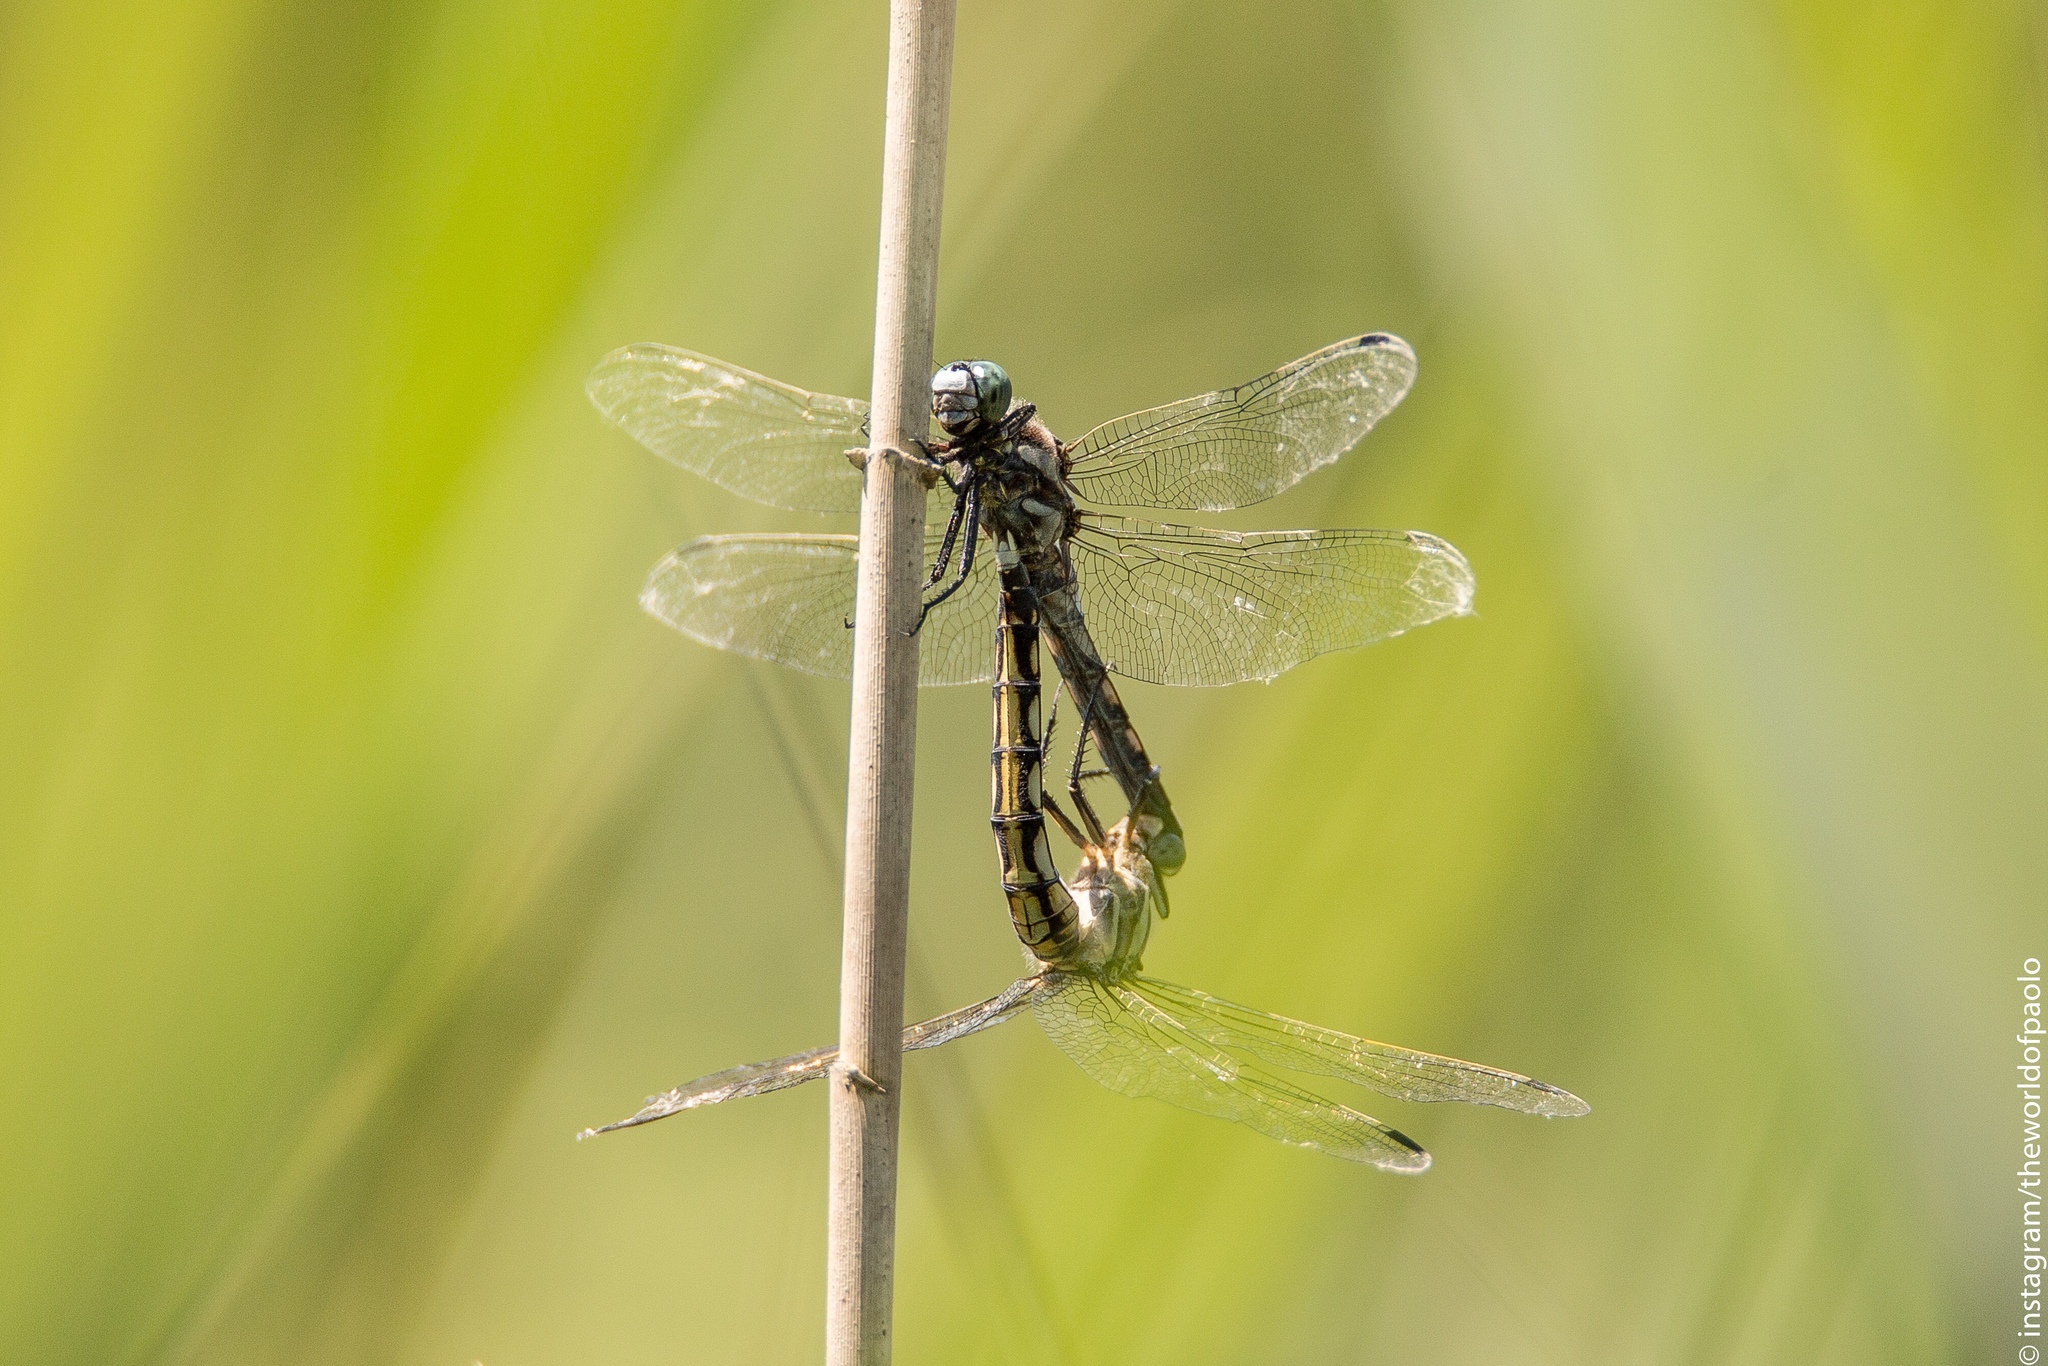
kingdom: Animalia
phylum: Arthropoda
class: Insecta
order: Odonata
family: Libellulidae
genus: Orthetrum
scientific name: Orthetrum albistylum
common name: White-tailed skimmer
